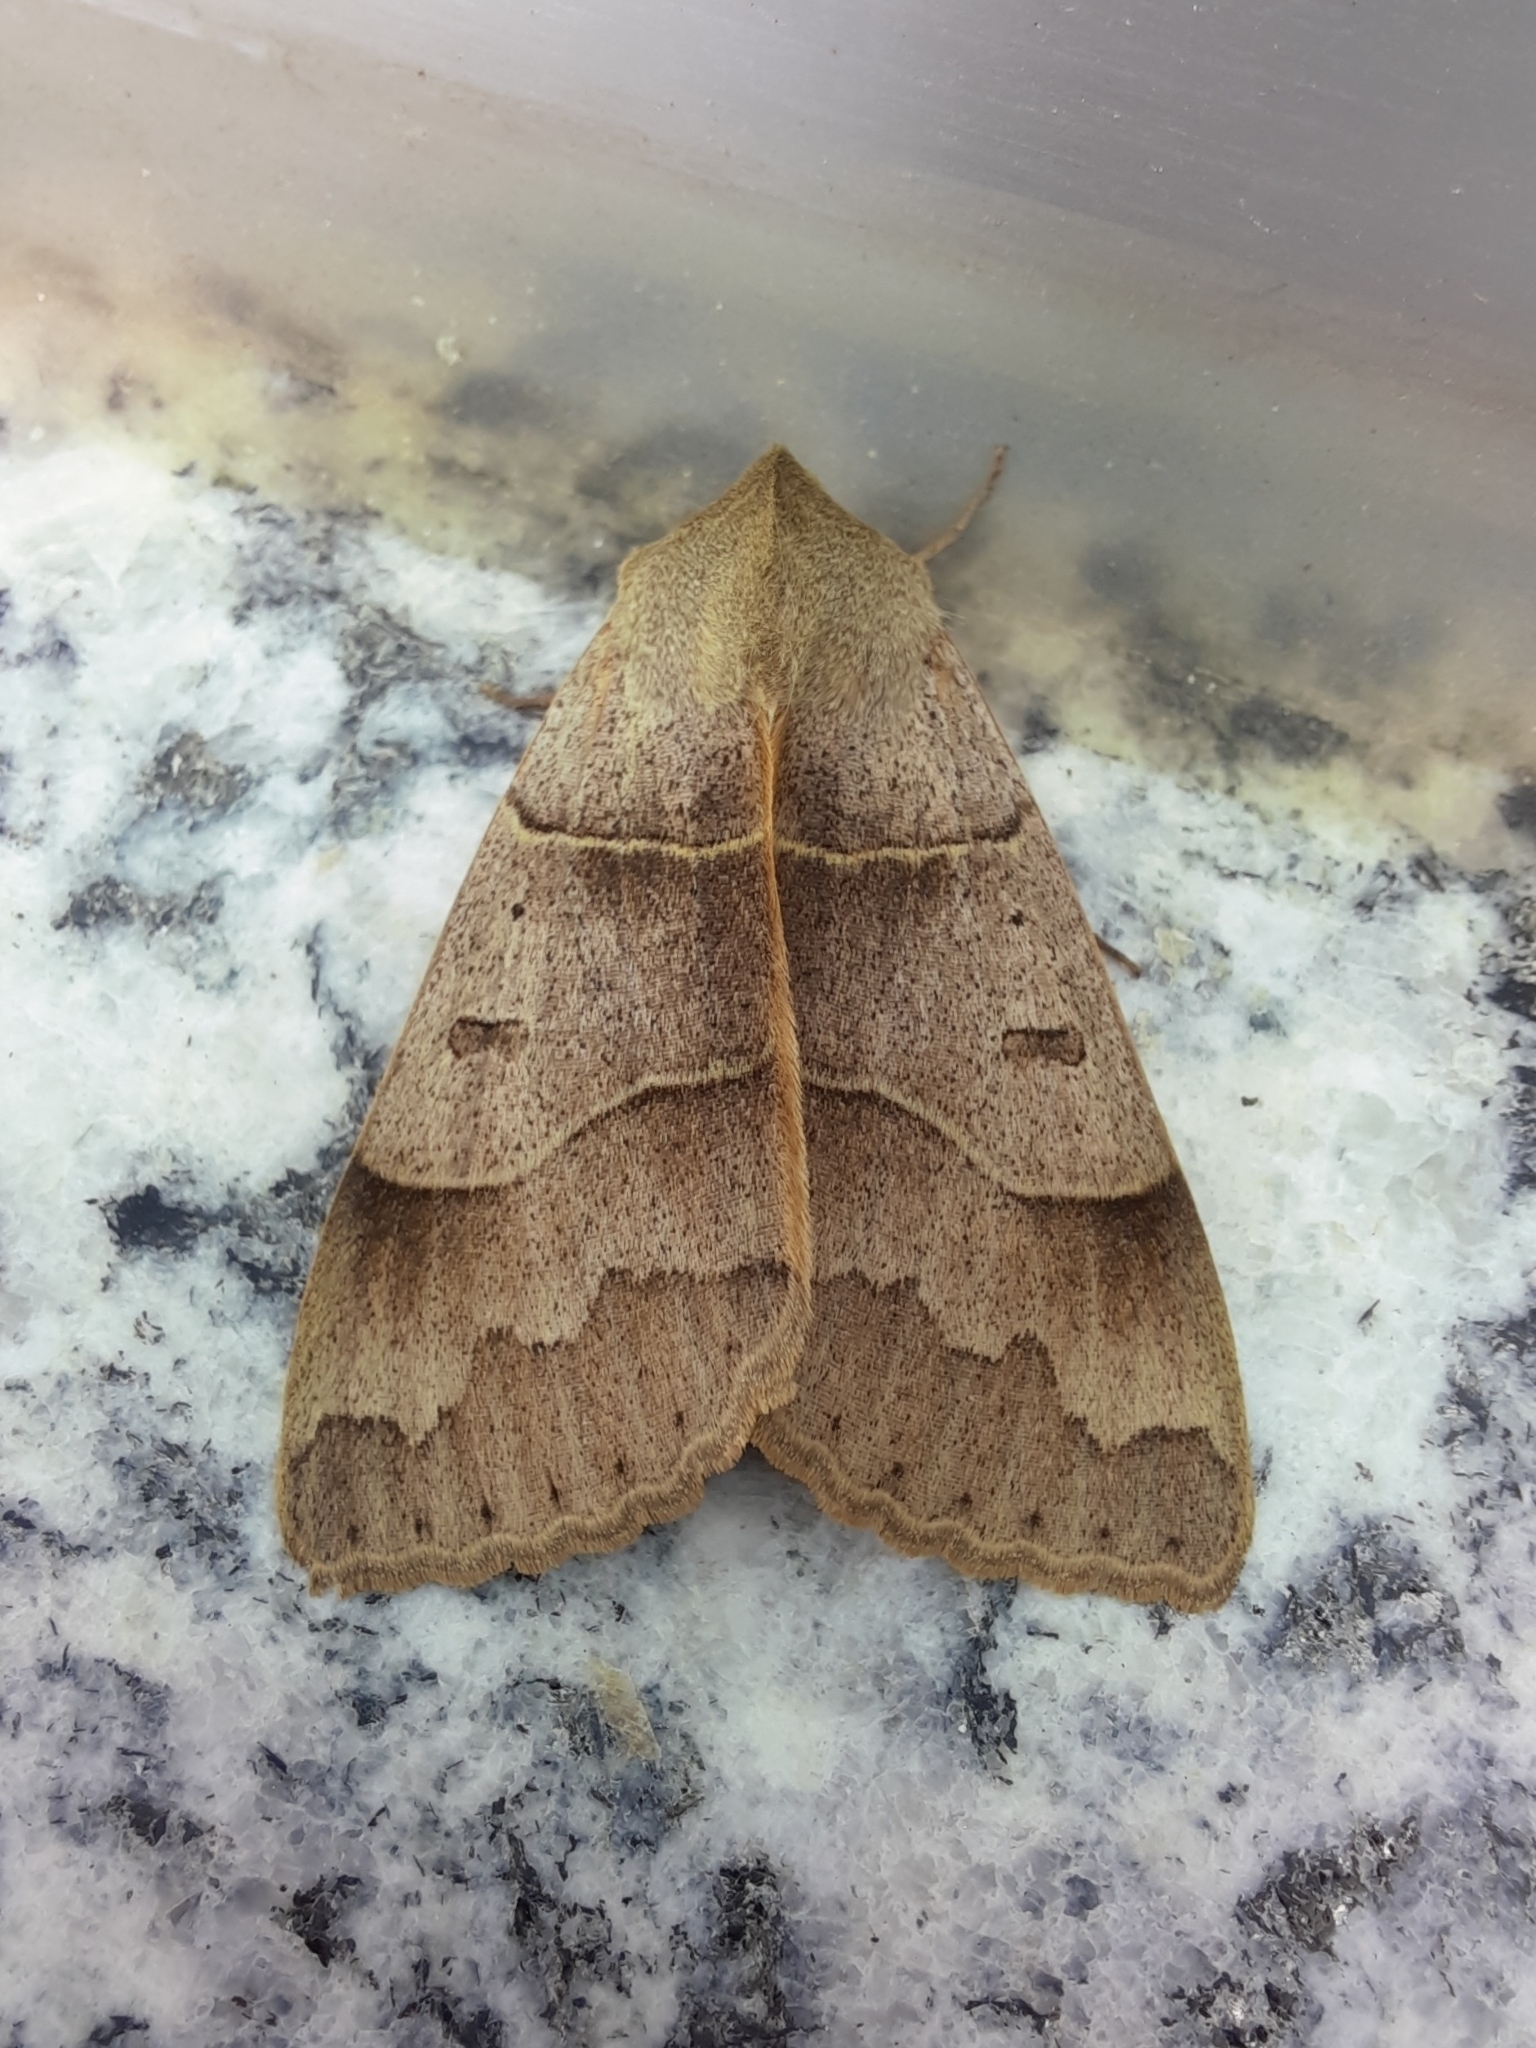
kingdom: Animalia
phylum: Arthropoda
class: Insecta
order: Lepidoptera
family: Erebidae
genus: Minucia
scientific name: Minucia lunaris
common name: Lunar double-stripe
